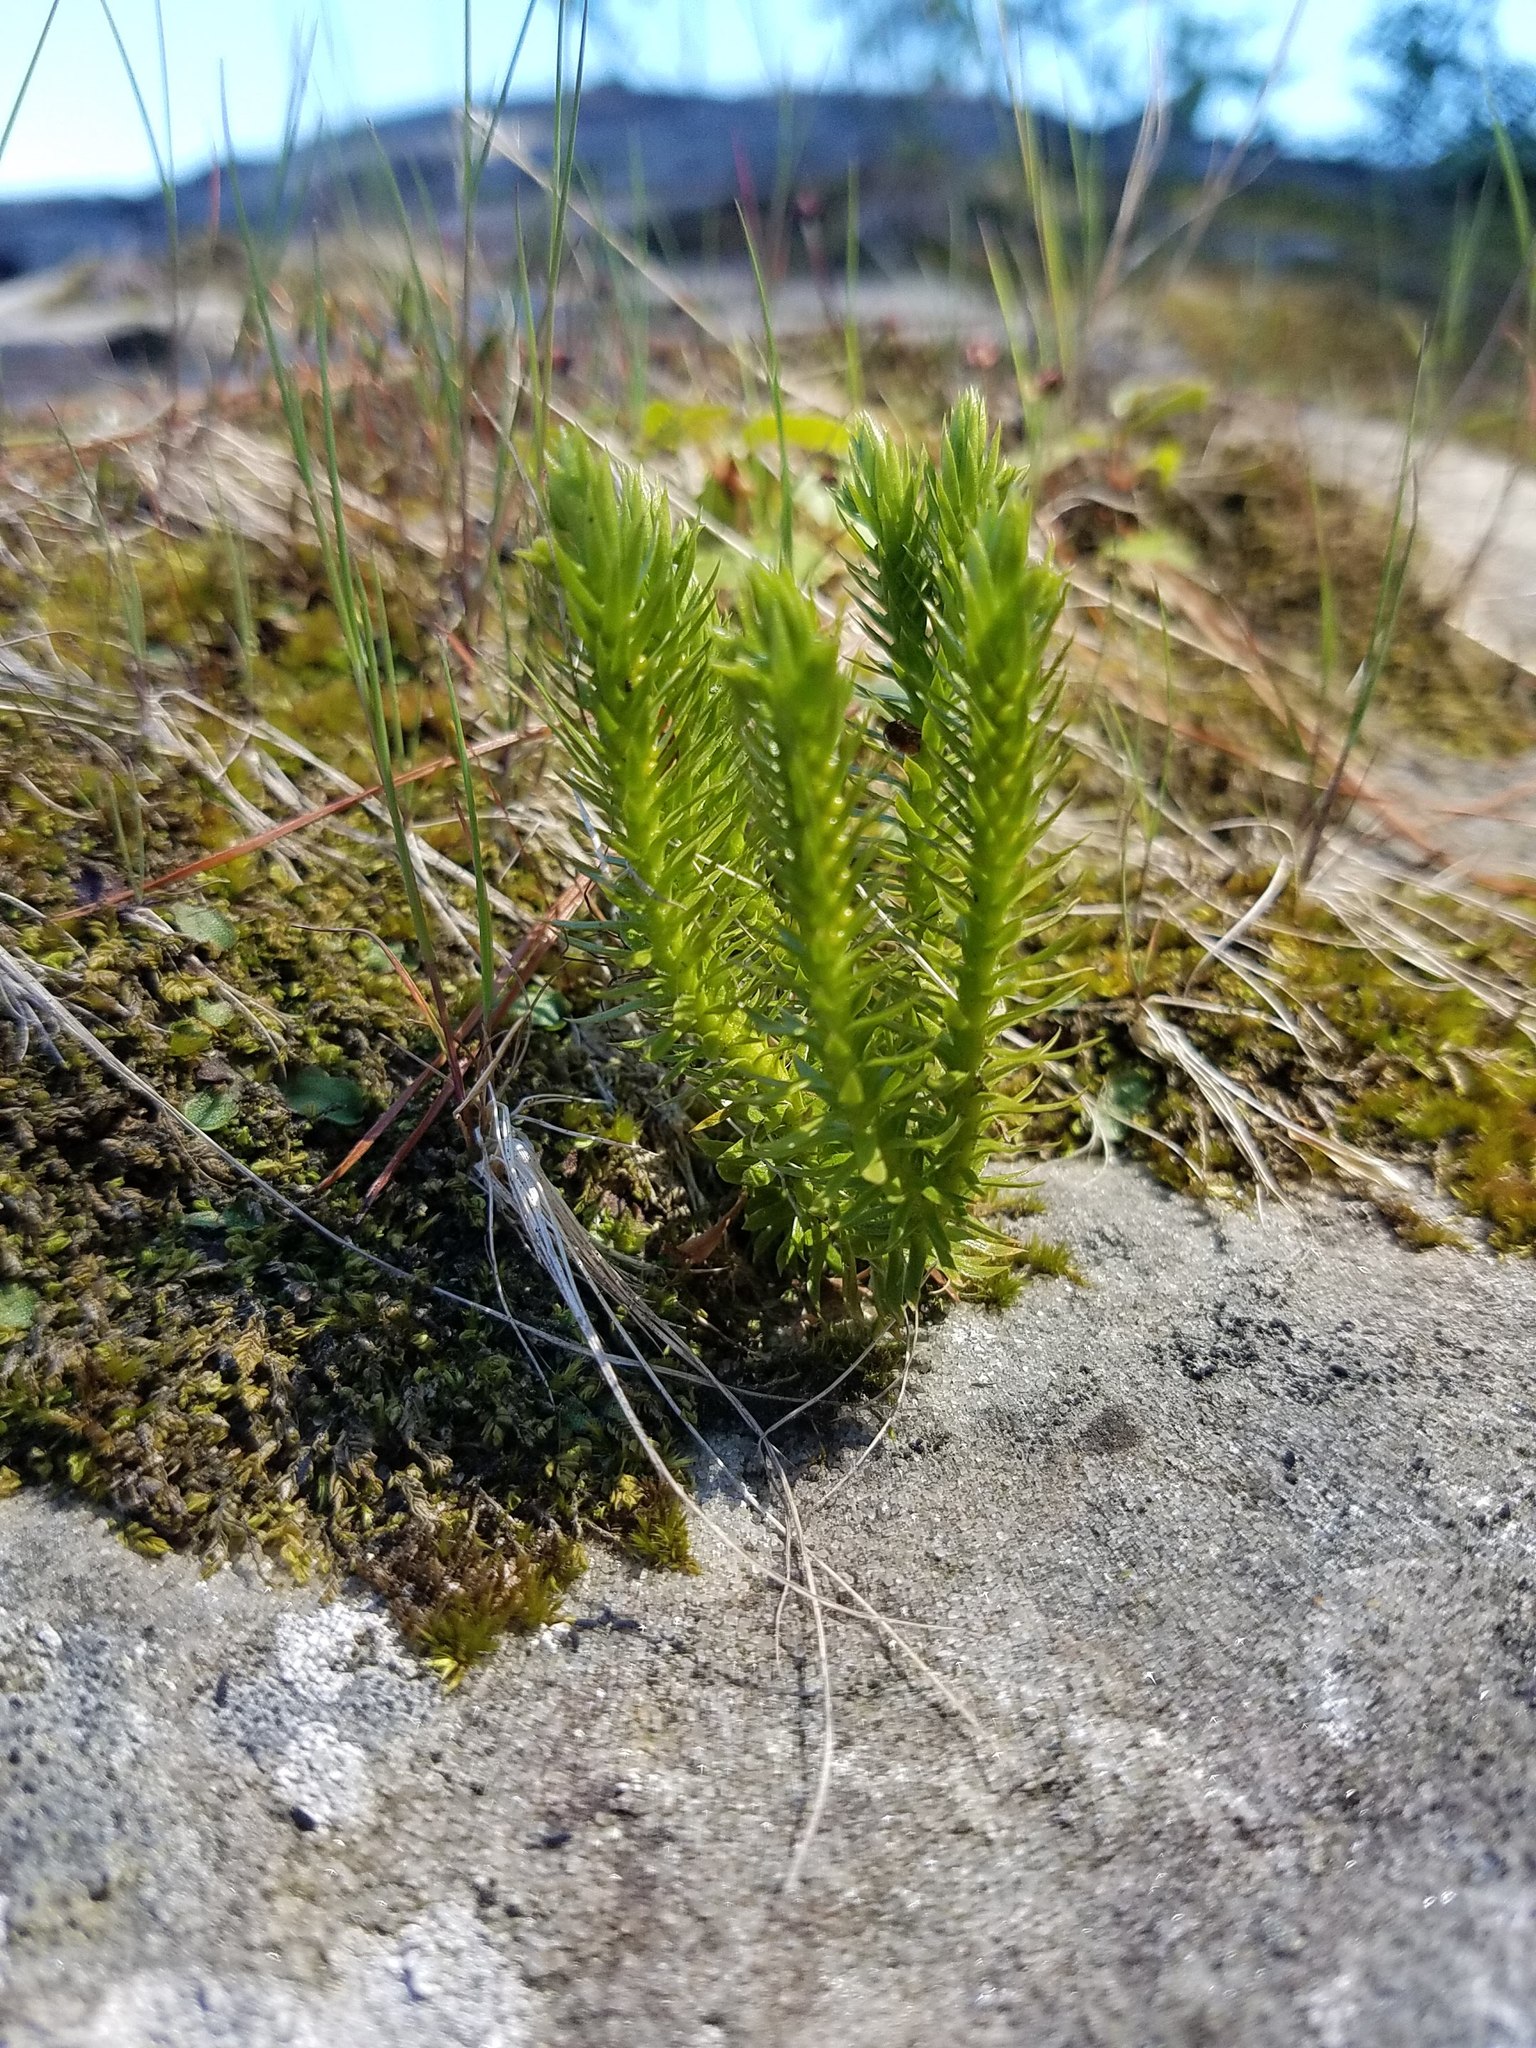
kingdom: Plantae
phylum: Tracheophyta
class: Lycopodiopsida
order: Lycopodiales
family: Lycopodiaceae
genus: Huperzia
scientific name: Huperzia selago
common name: Northern firmoss
